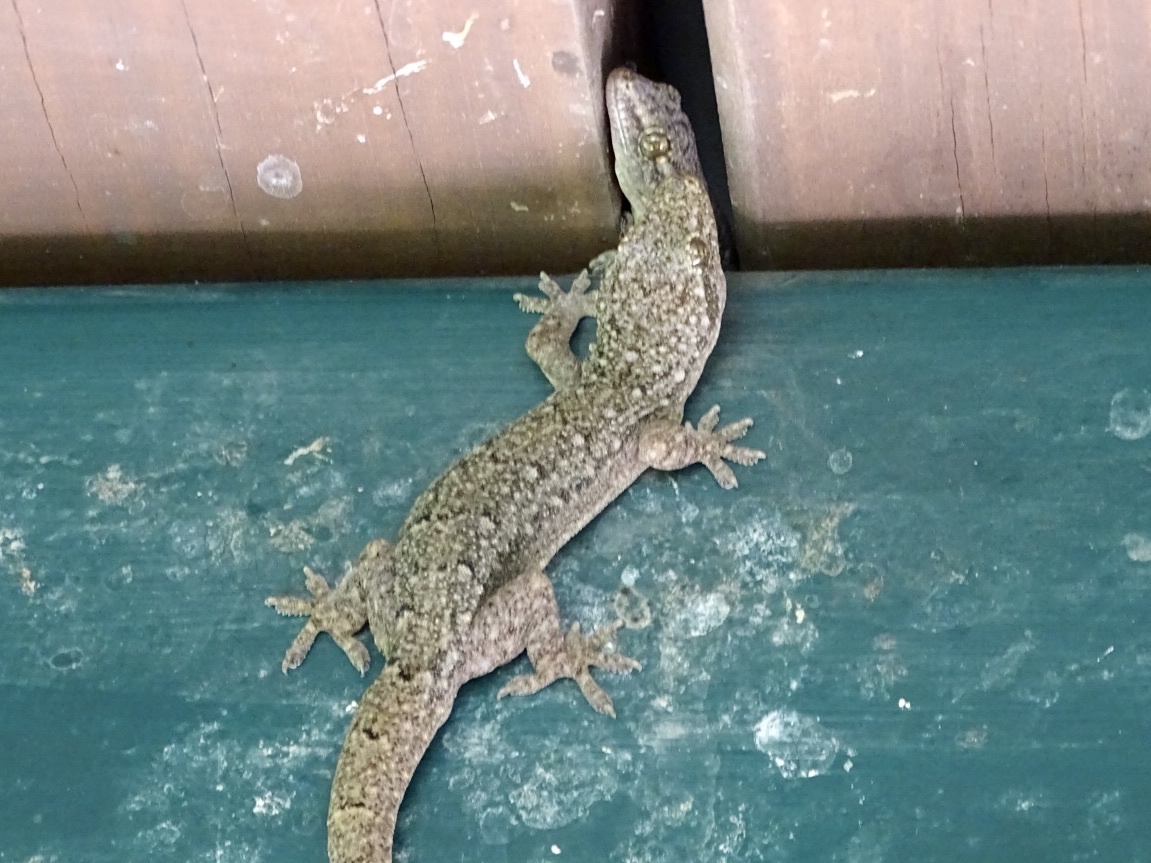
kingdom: Animalia
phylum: Chordata
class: Squamata
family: Gekkonidae
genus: Hemidactylus
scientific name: Hemidactylus bowringii
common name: Oriental leaf-toed gecko
